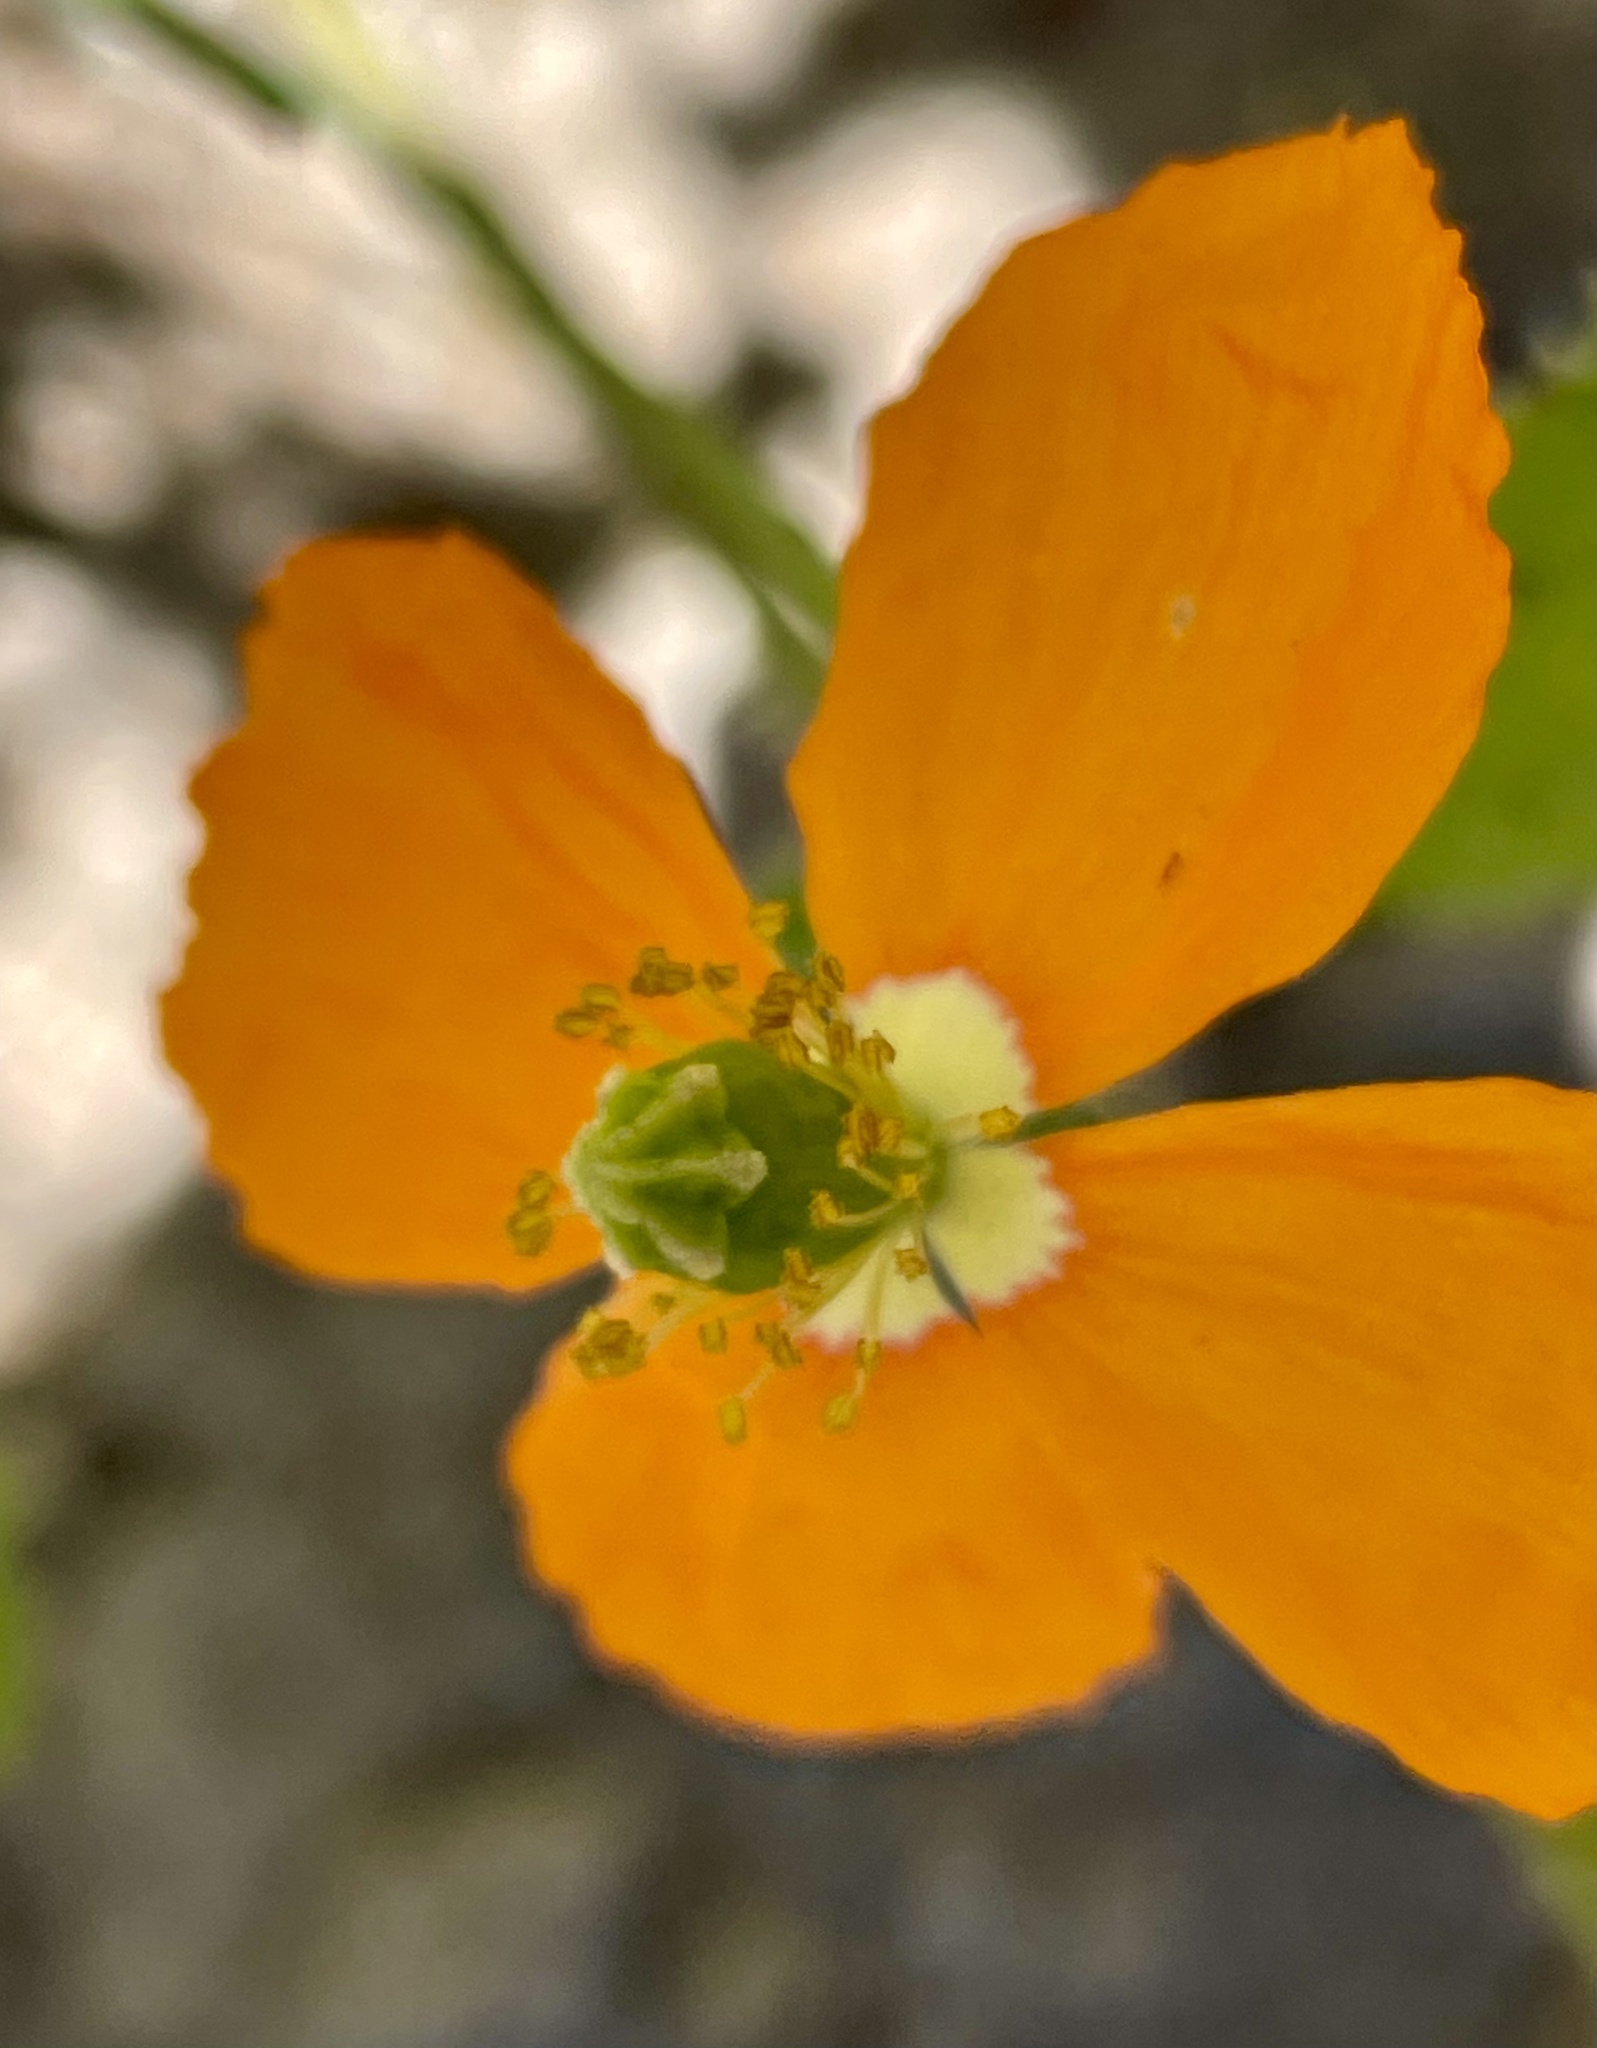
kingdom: Plantae
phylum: Tracheophyta
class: Magnoliopsida
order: Ranunculales
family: Papaveraceae
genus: Papaver
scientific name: Papaver californicum
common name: Fire poppy
